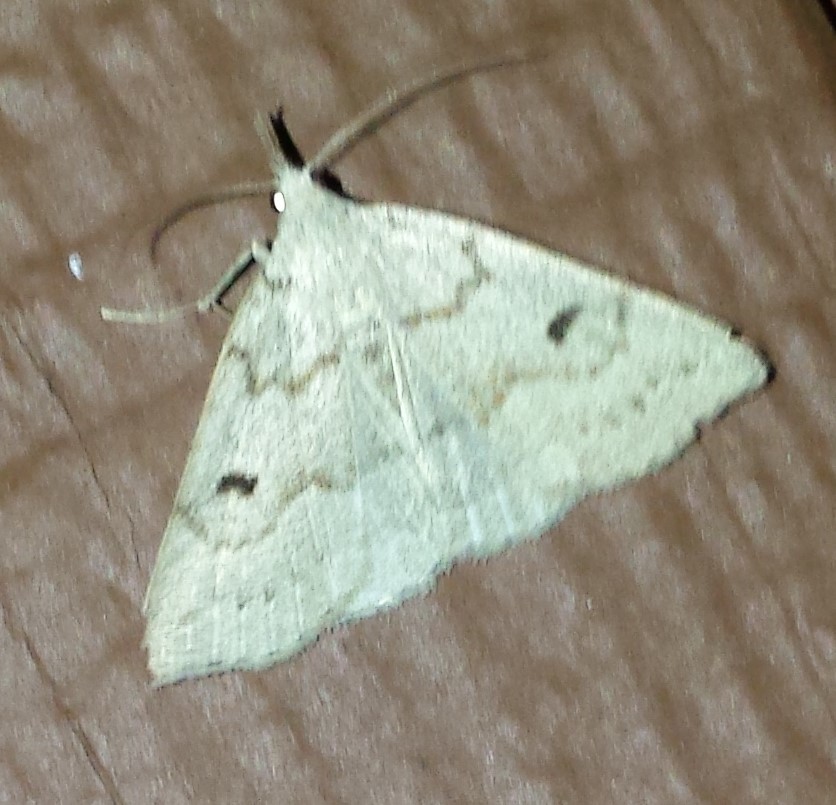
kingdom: Animalia
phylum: Arthropoda
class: Insecta
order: Lepidoptera
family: Erebidae
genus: Macrochilo
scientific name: Macrochilo morbidalis
